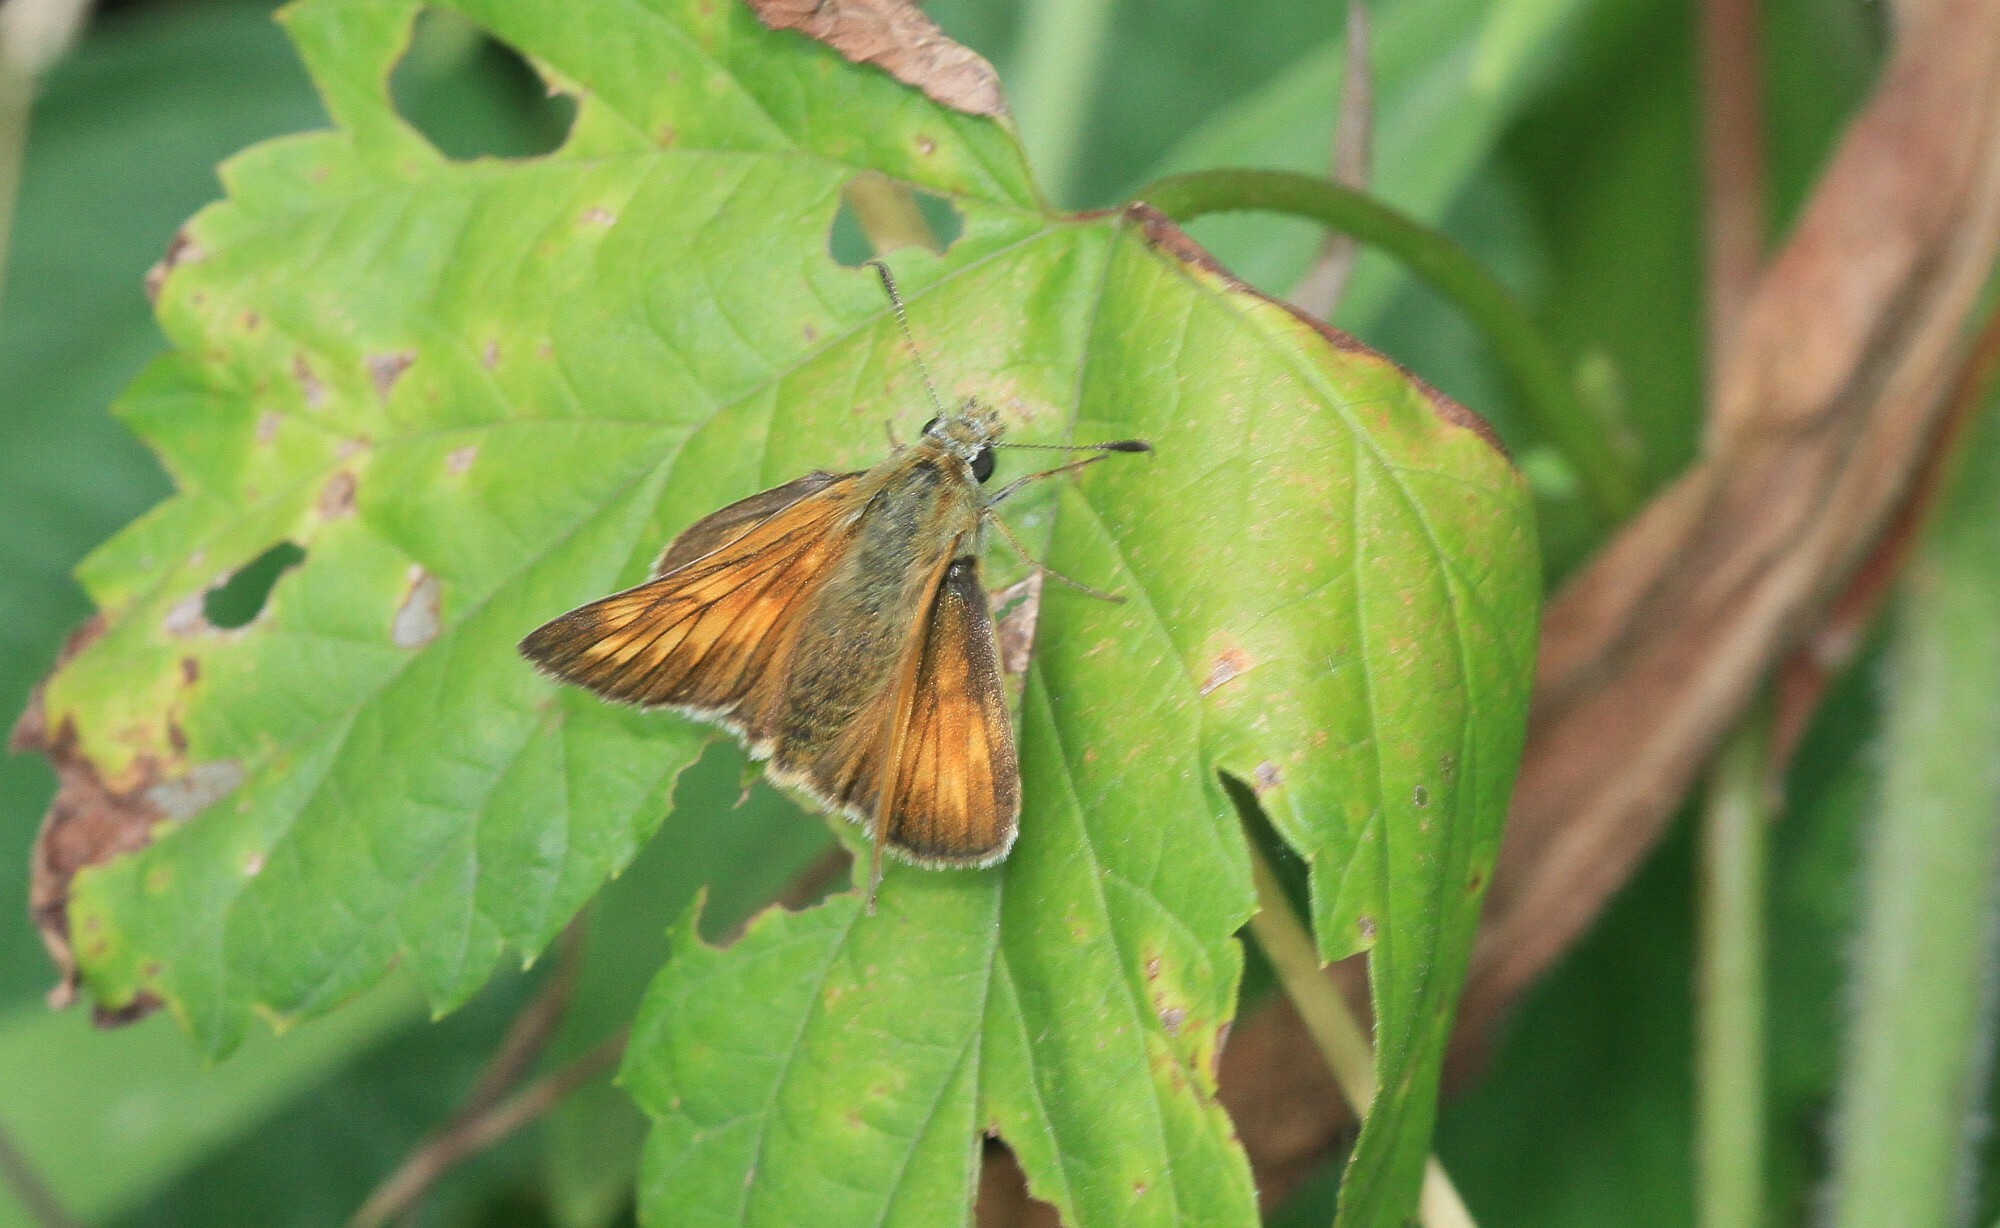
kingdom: Animalia
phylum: Arthropoda
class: Insecta
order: Lepidoptera
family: Hesperiidae
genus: Ochlodes
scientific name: Ochlodes venata
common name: Large skipper
